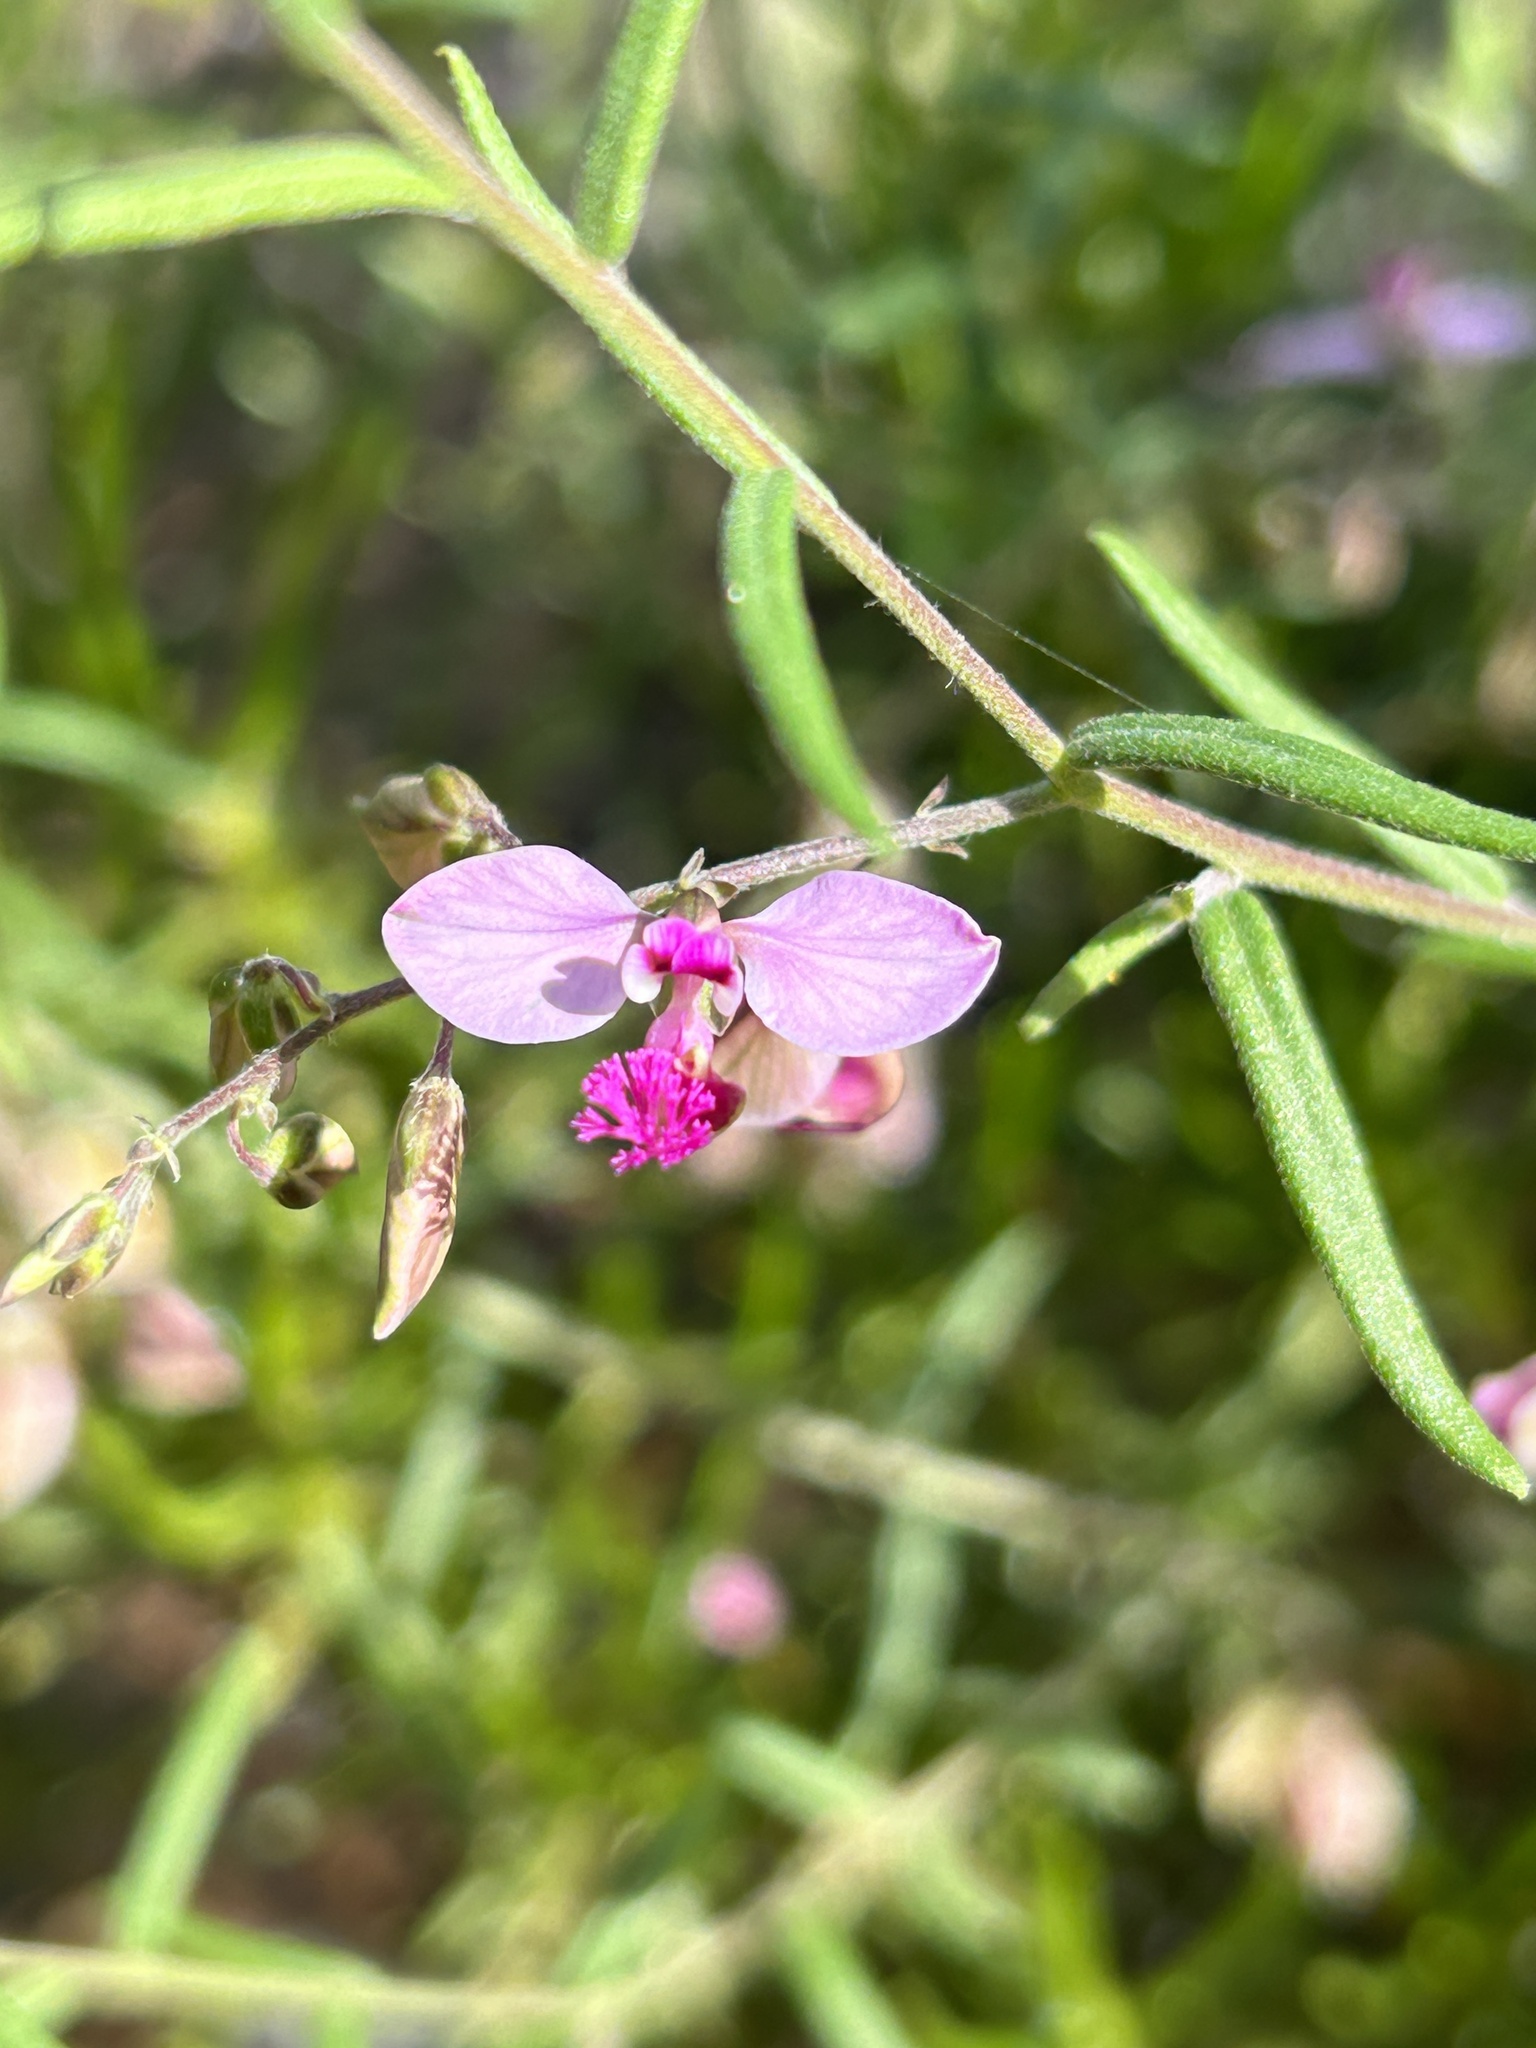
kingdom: Plantae
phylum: Tracheophyta
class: Magnoliopsida
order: Fabales
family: Polygalaceae
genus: Polygala
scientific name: Polygala scabra
